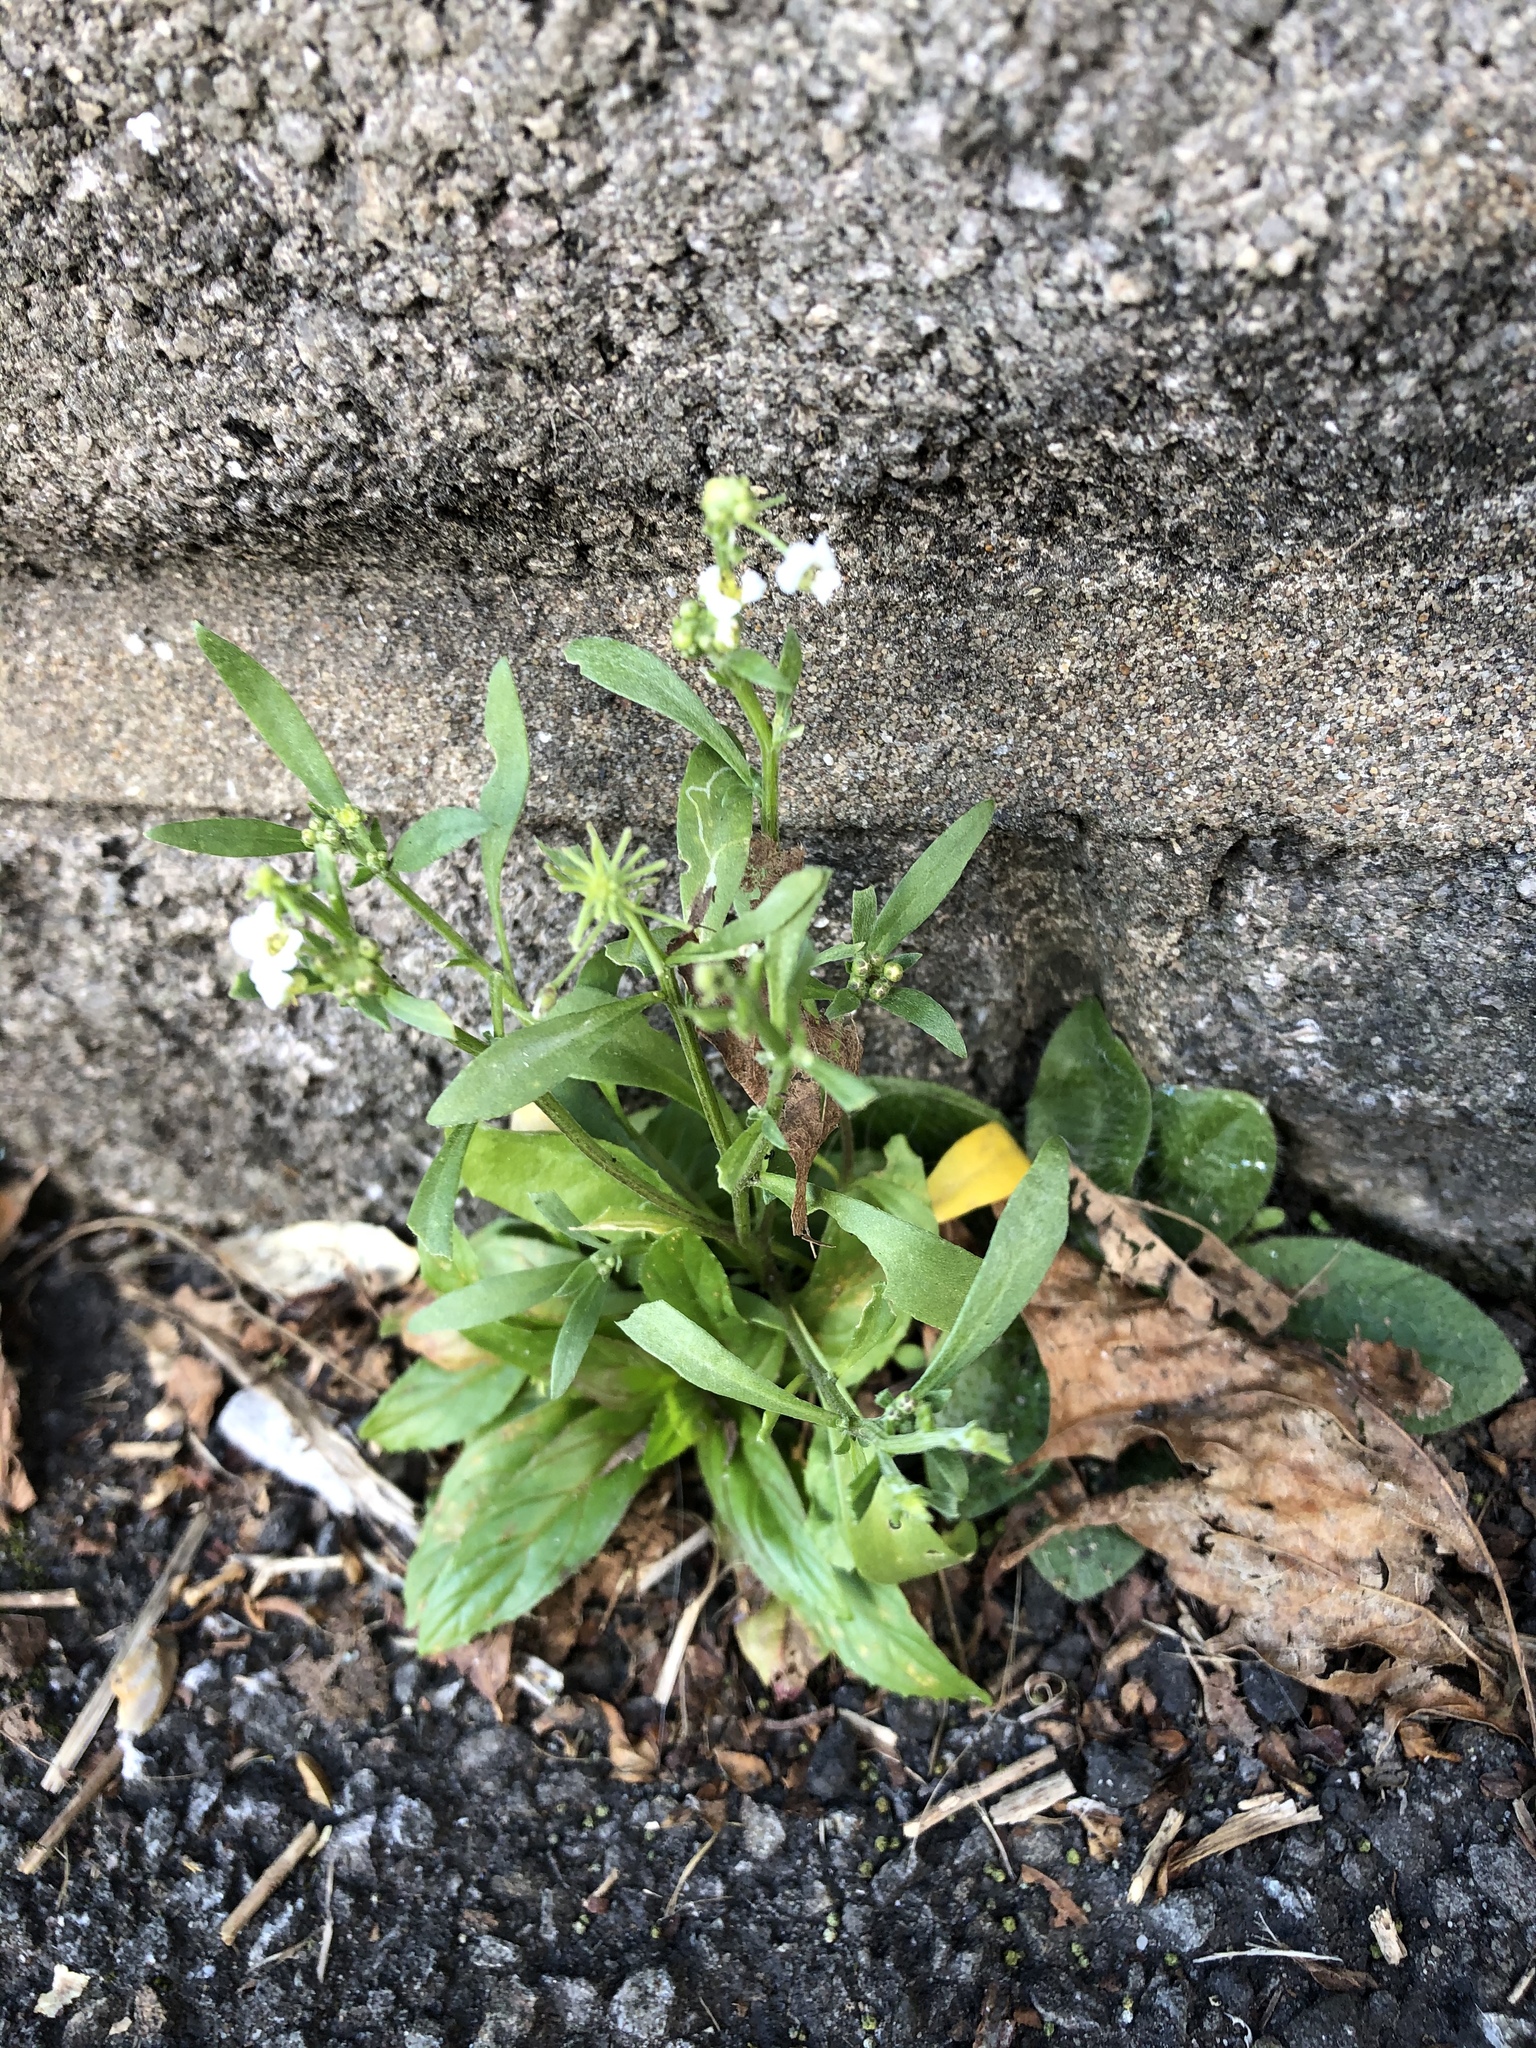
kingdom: Plantae
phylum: Tracheophyta
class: Magnoliopsida
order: Brassicales
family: Brassicaceae
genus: Lobularia
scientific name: Lobularia maritima
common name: Sweet alison
